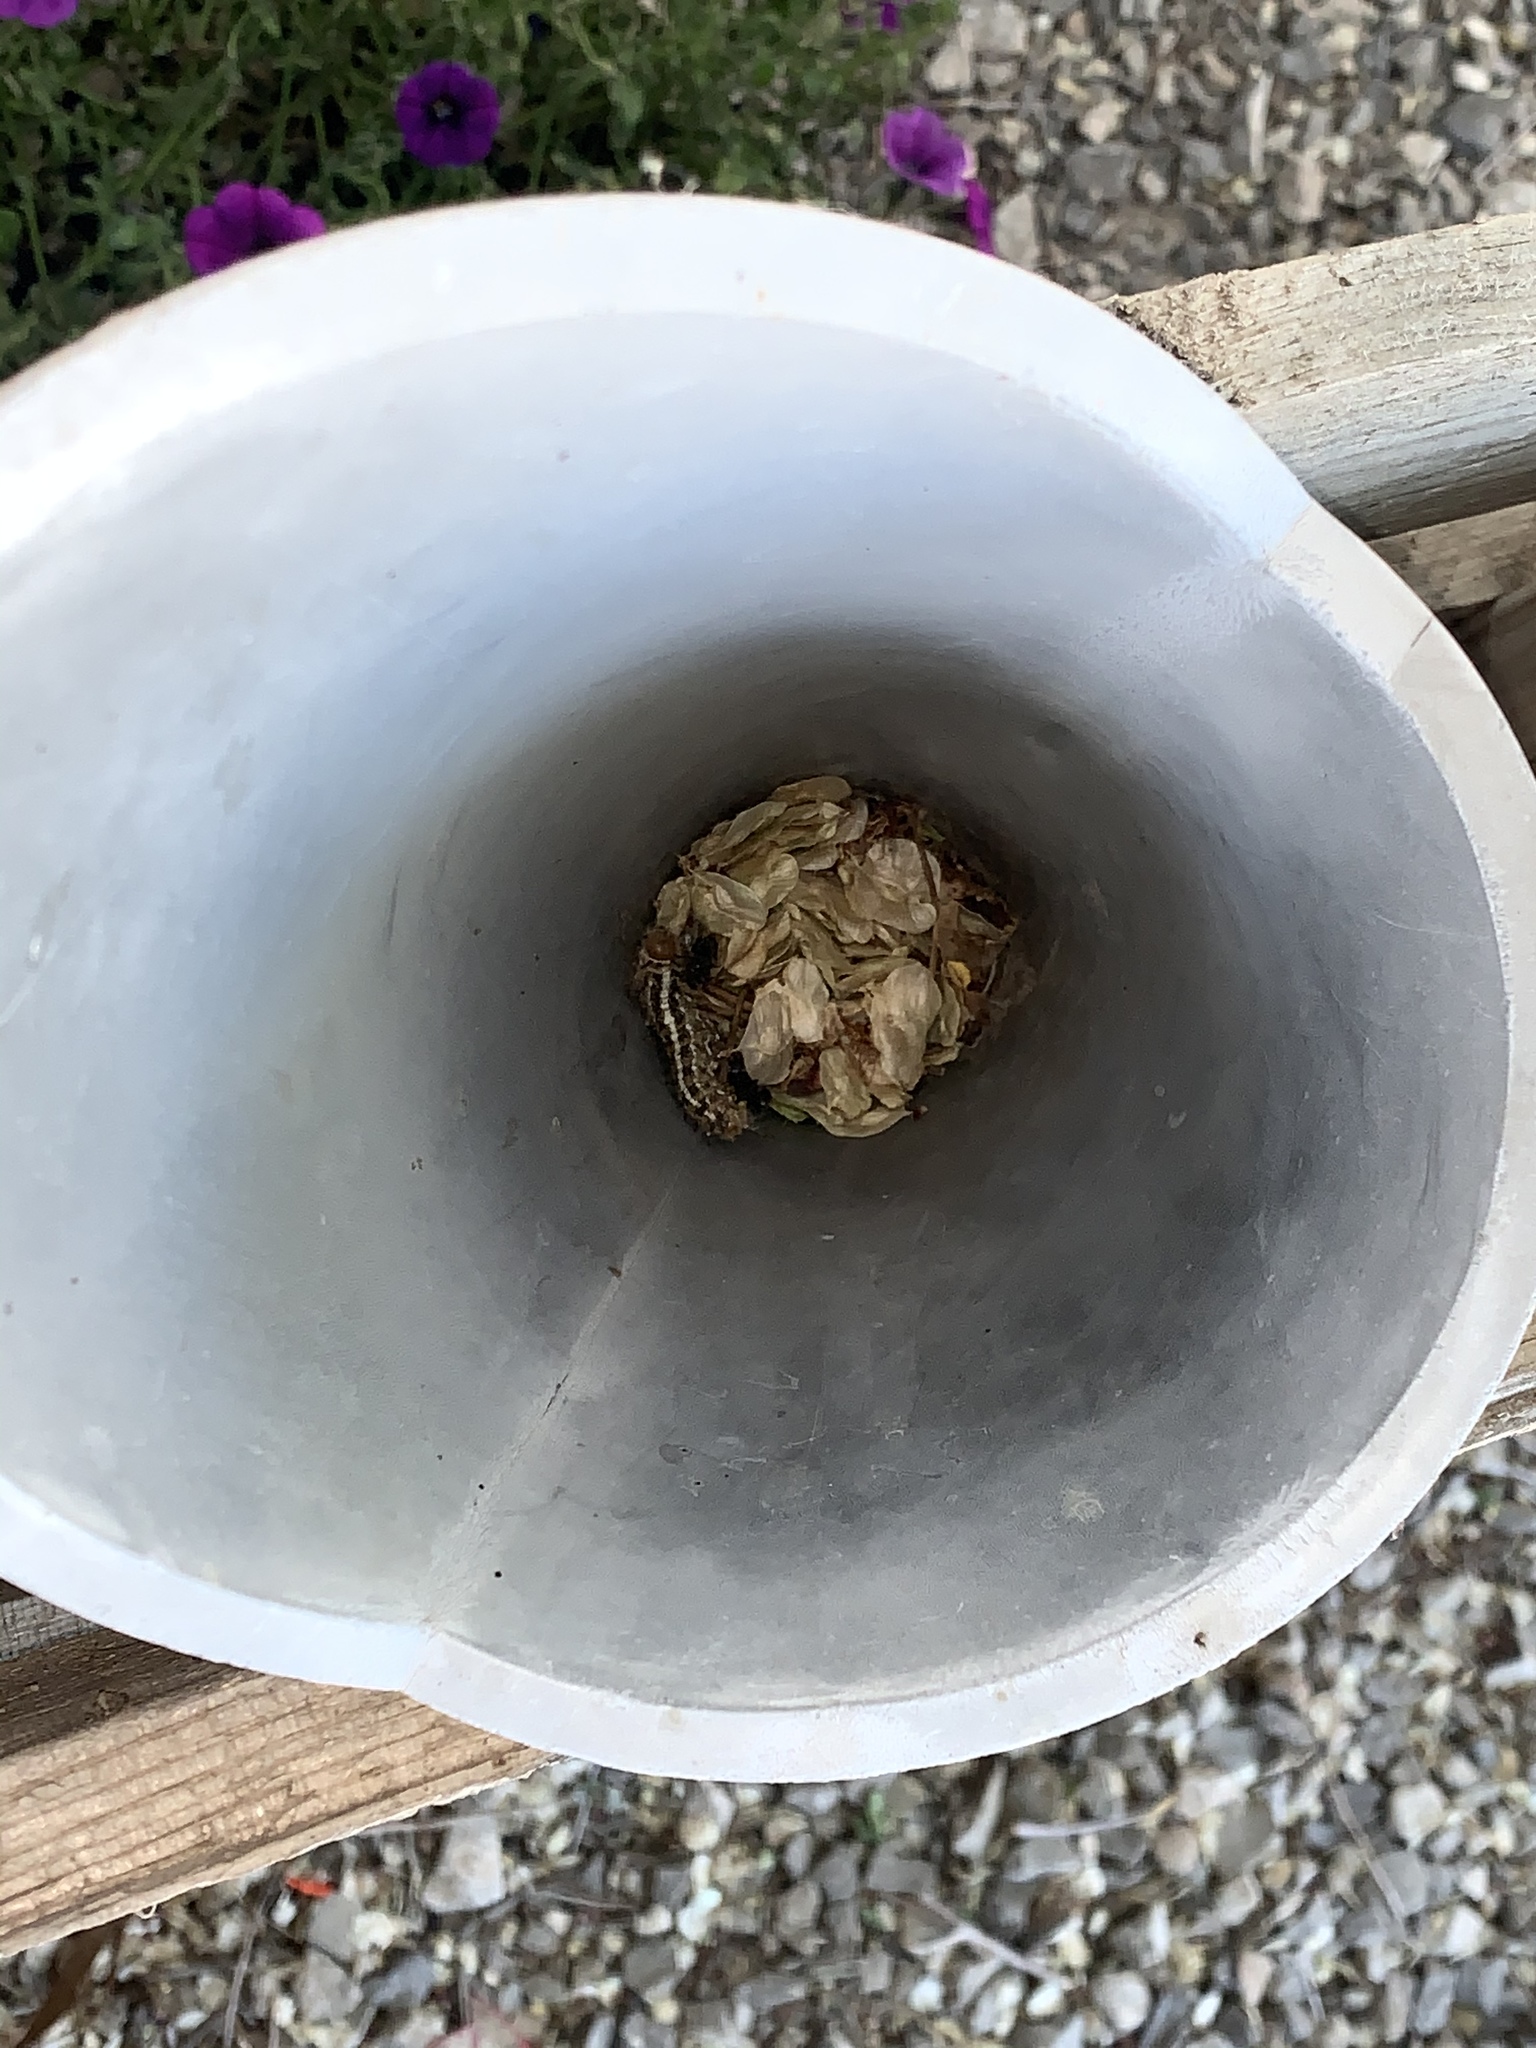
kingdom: Animalia
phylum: Arthropoda
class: Insecta
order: Lepidoptera
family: Saturniidae
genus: Coloradia
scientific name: Coloradia pandora
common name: Pandora pinemoth
